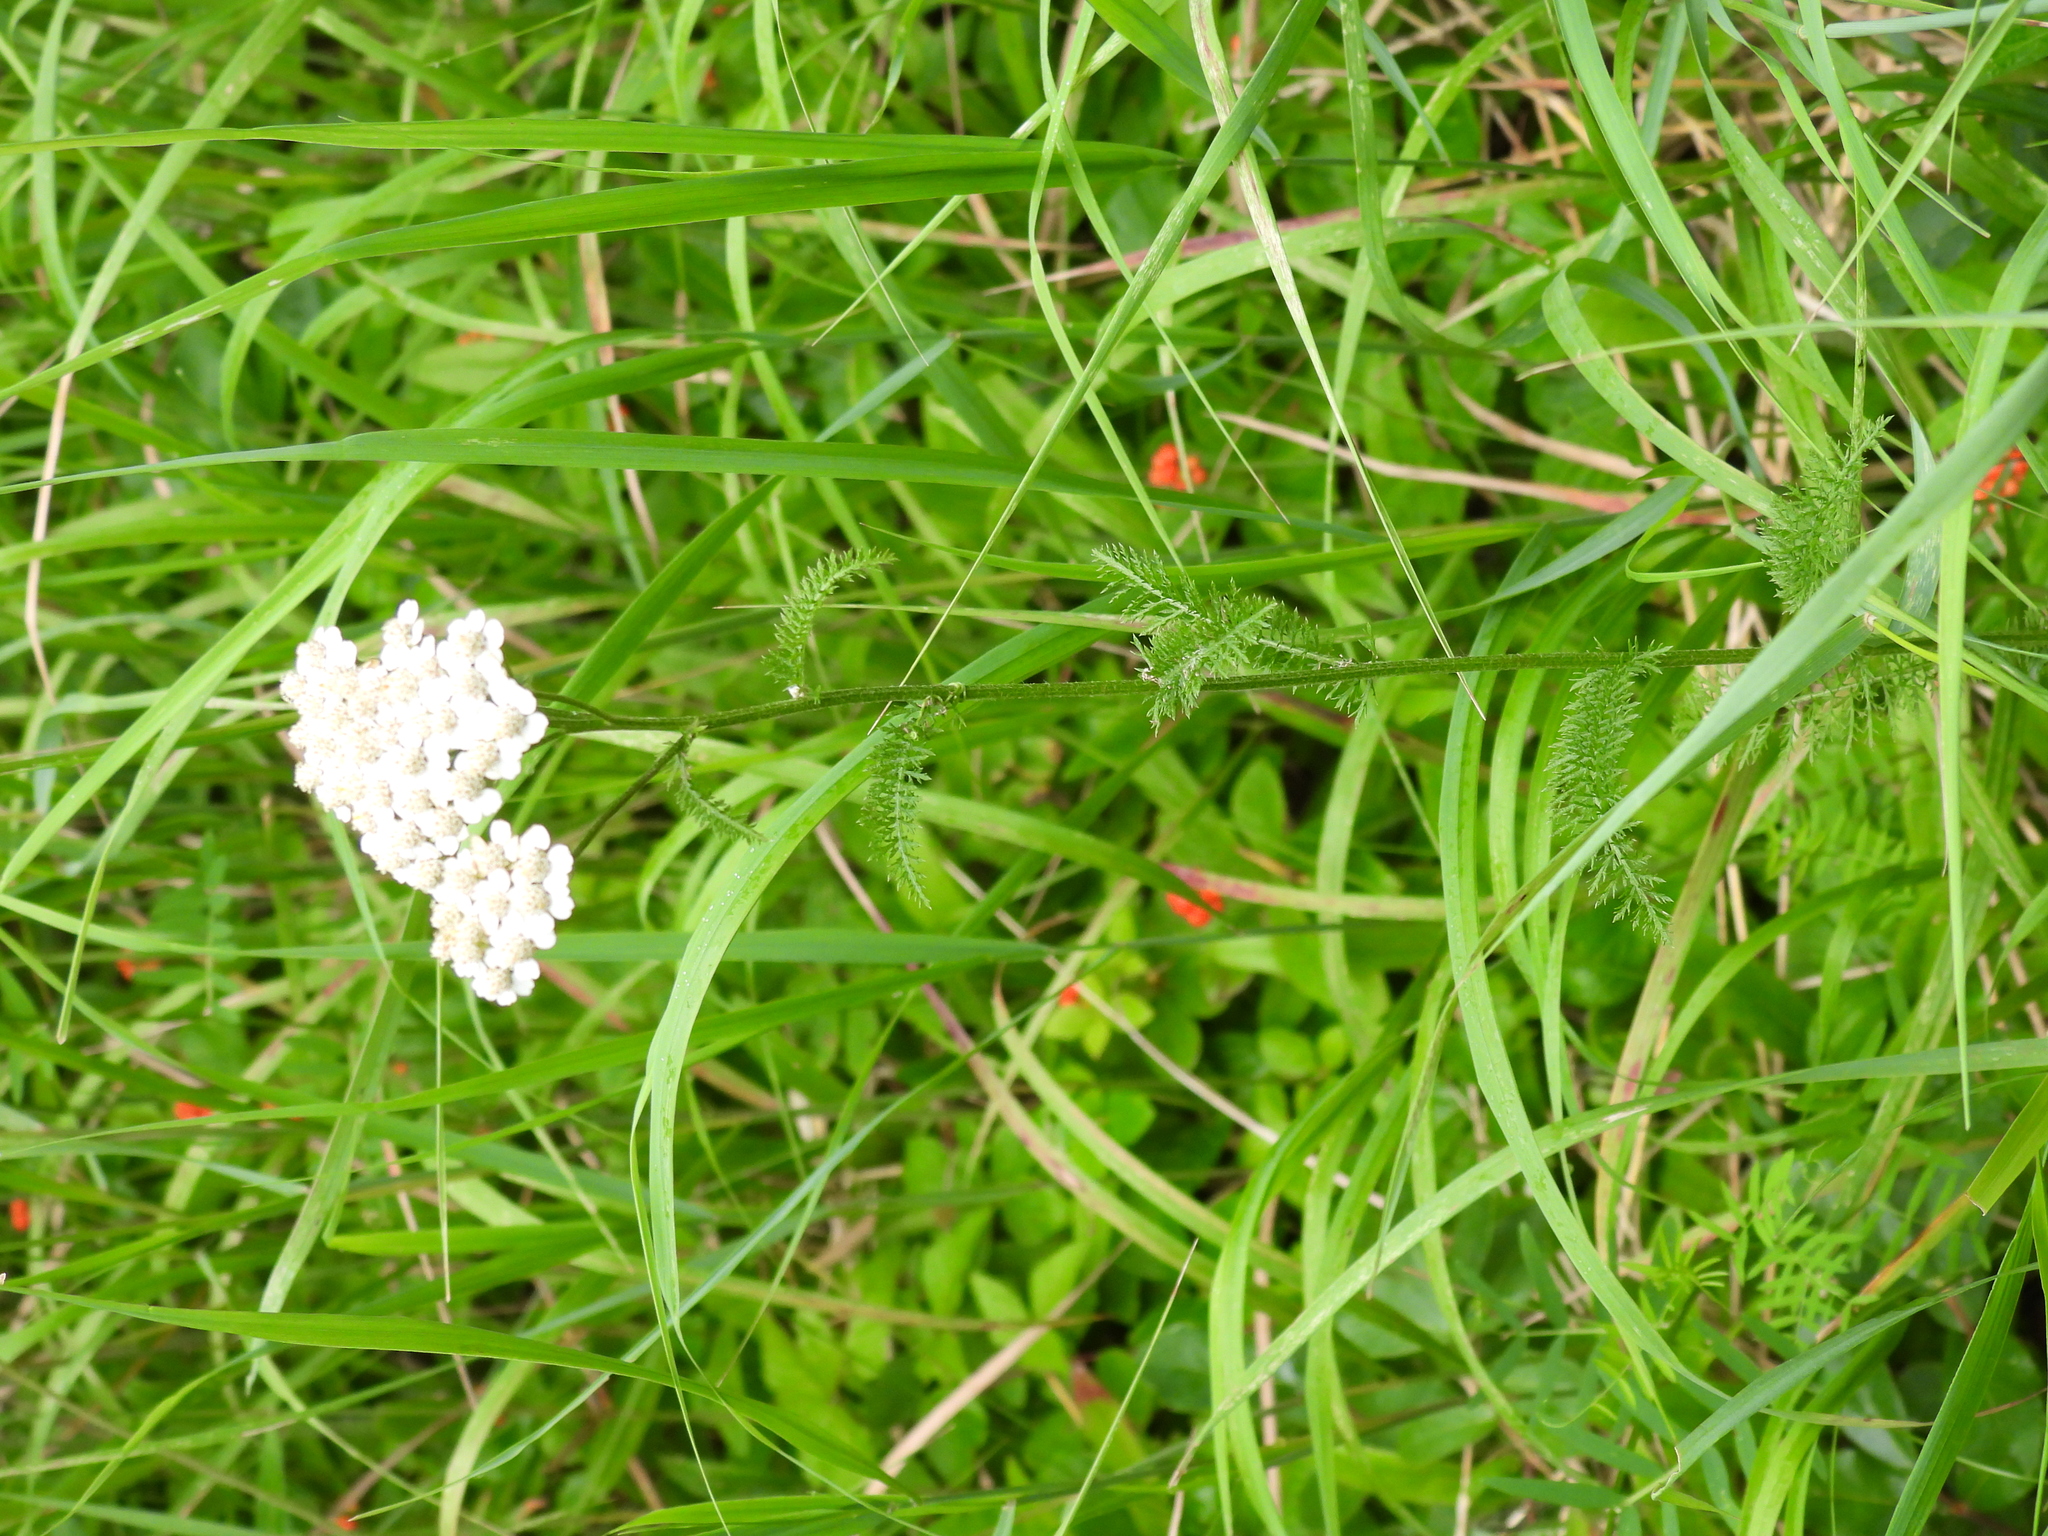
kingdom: Plantae
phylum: Tracheophyta
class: Magnoliopsida
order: Asterales
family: Asteraceae
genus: Achillea
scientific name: Achillea millefolium
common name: Yarrow
